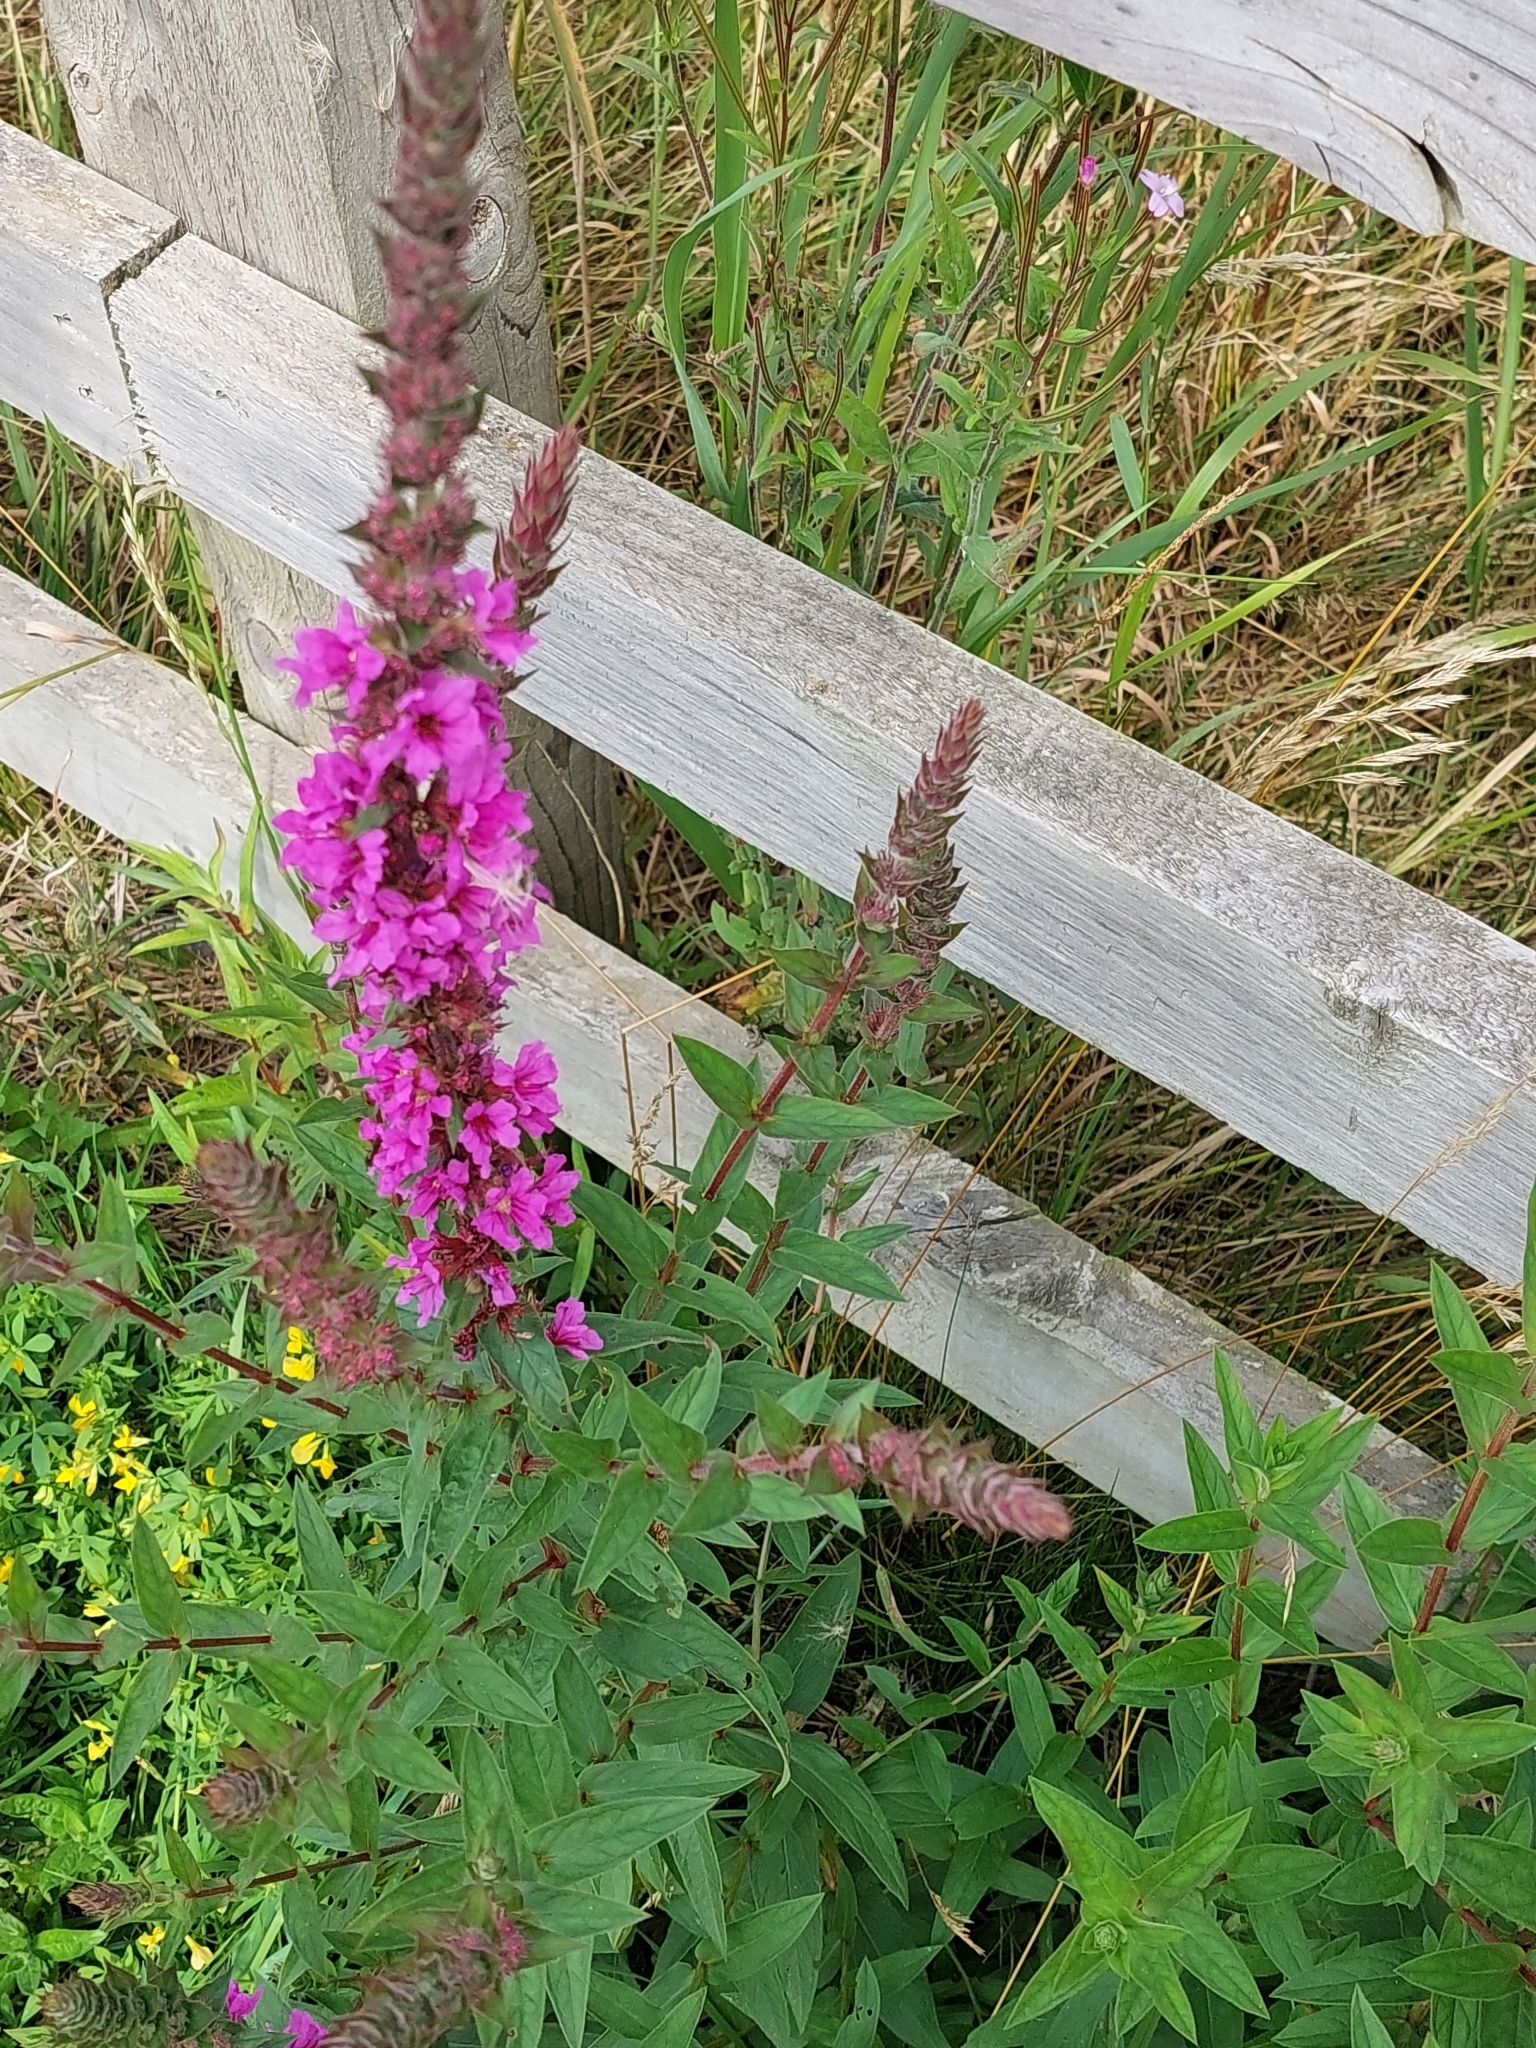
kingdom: Plantae
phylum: Tracheophyta
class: Magnoliopsida
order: Myrtales
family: Lythraceae
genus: Lythrum
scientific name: Lythrum salicaria
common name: Purple loosestrife
